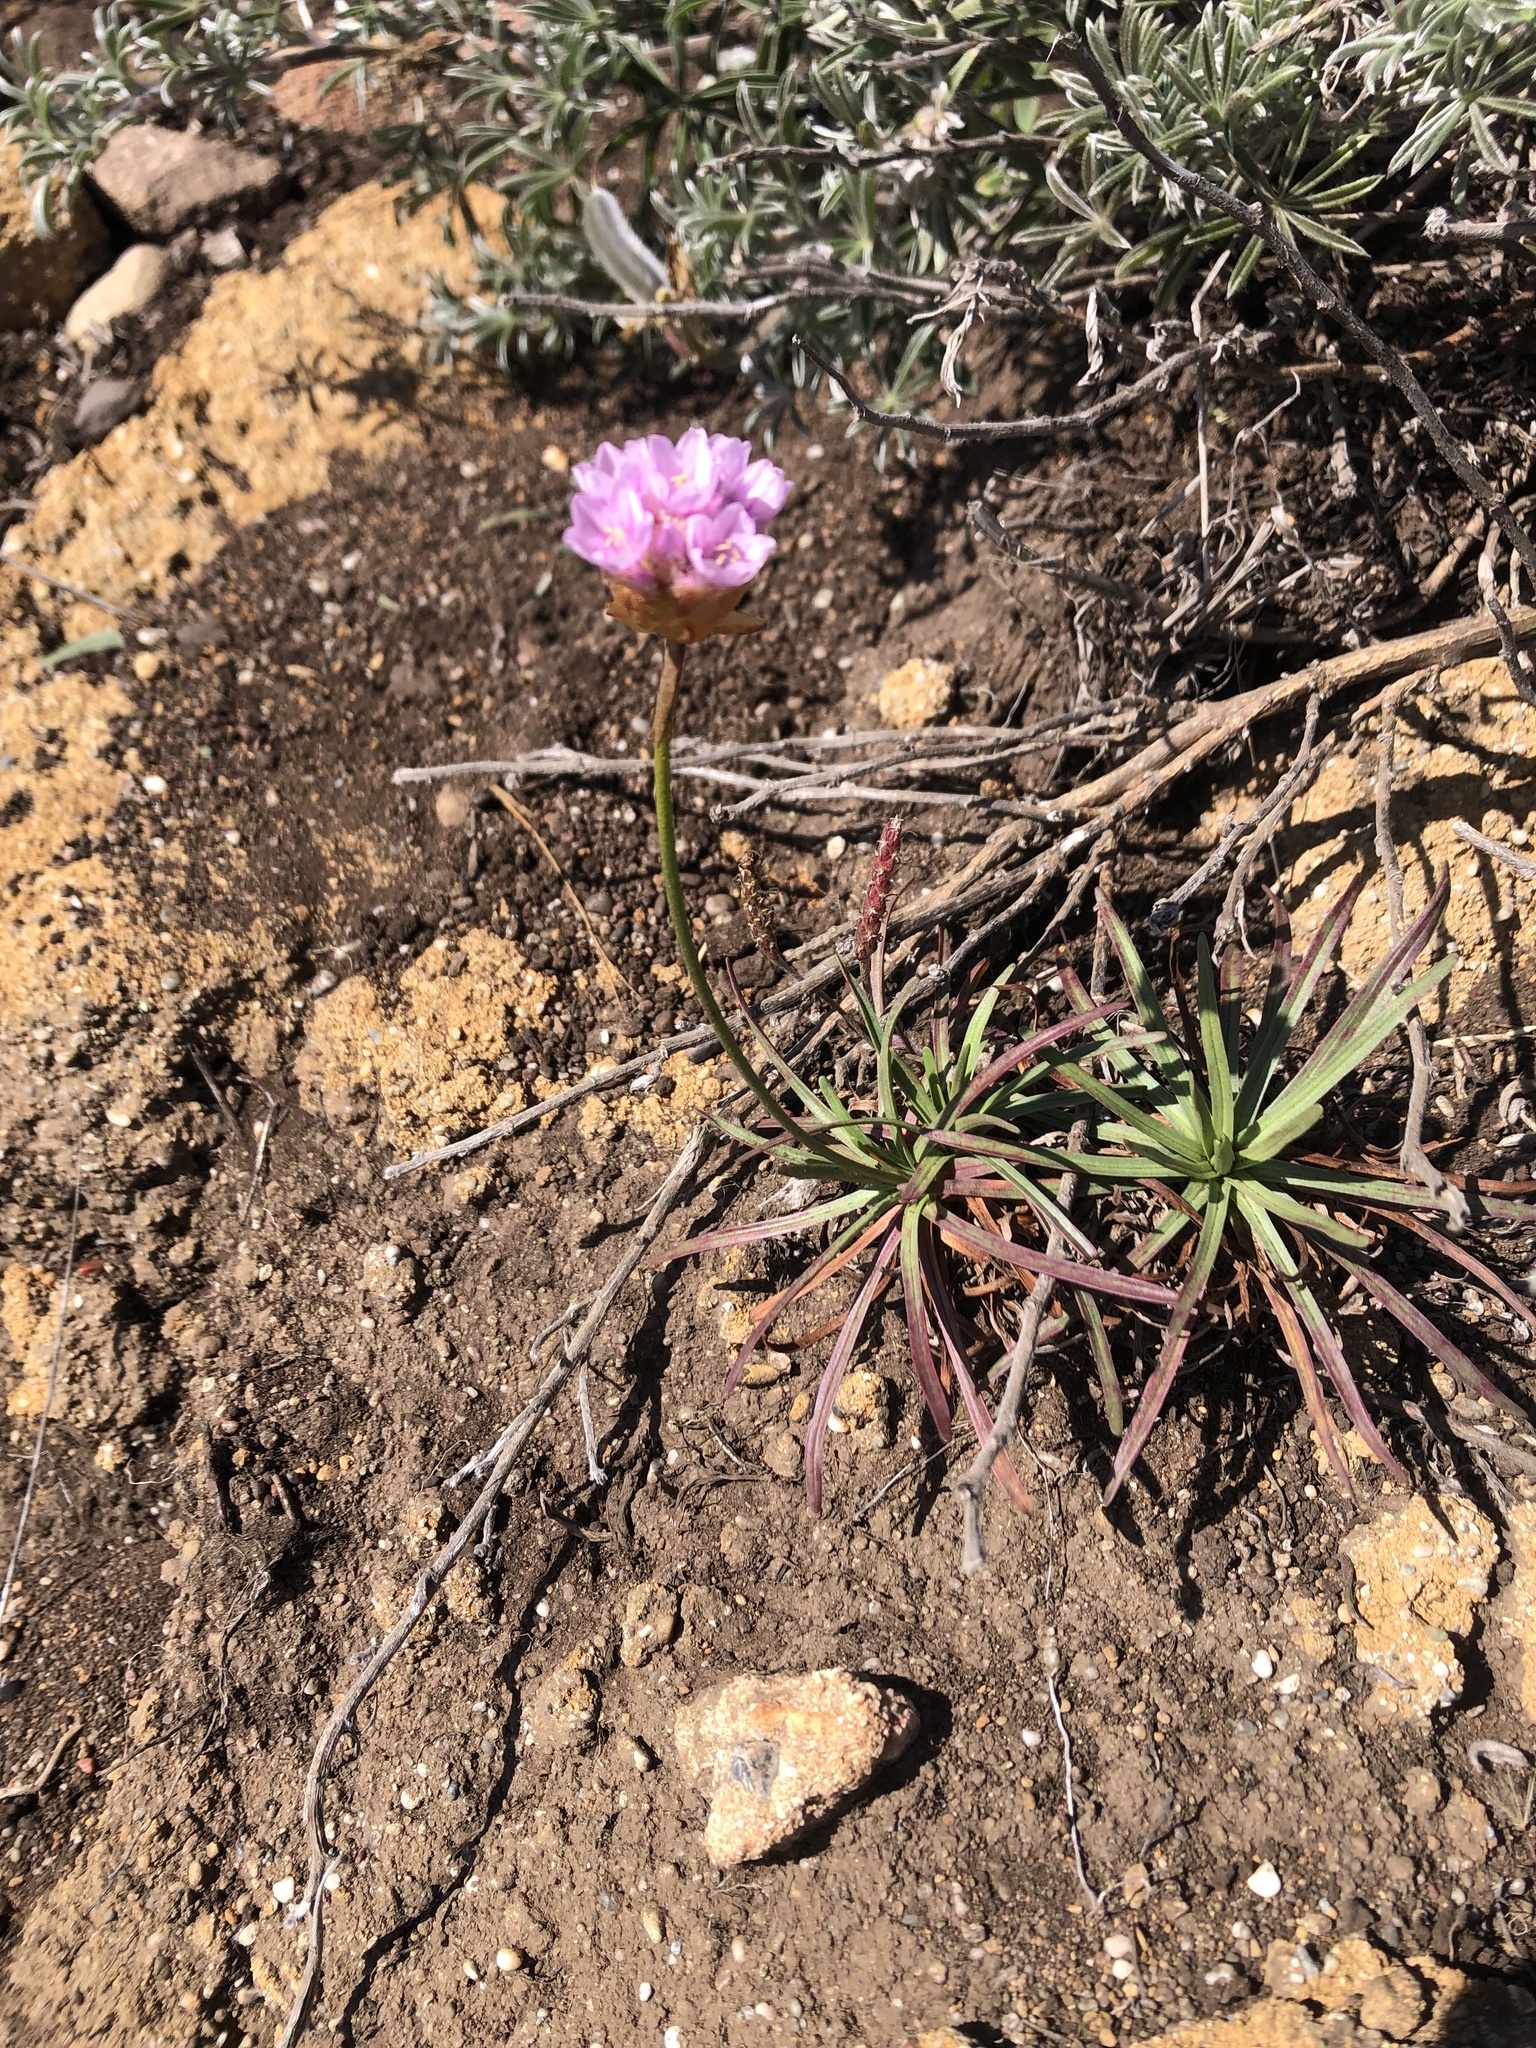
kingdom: Plantae
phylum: Tracheophyta
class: Magnoliopsida
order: Caryophyllales
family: Plumbaginaceae
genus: Armeria
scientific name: Armeria maritima
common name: Thrift
